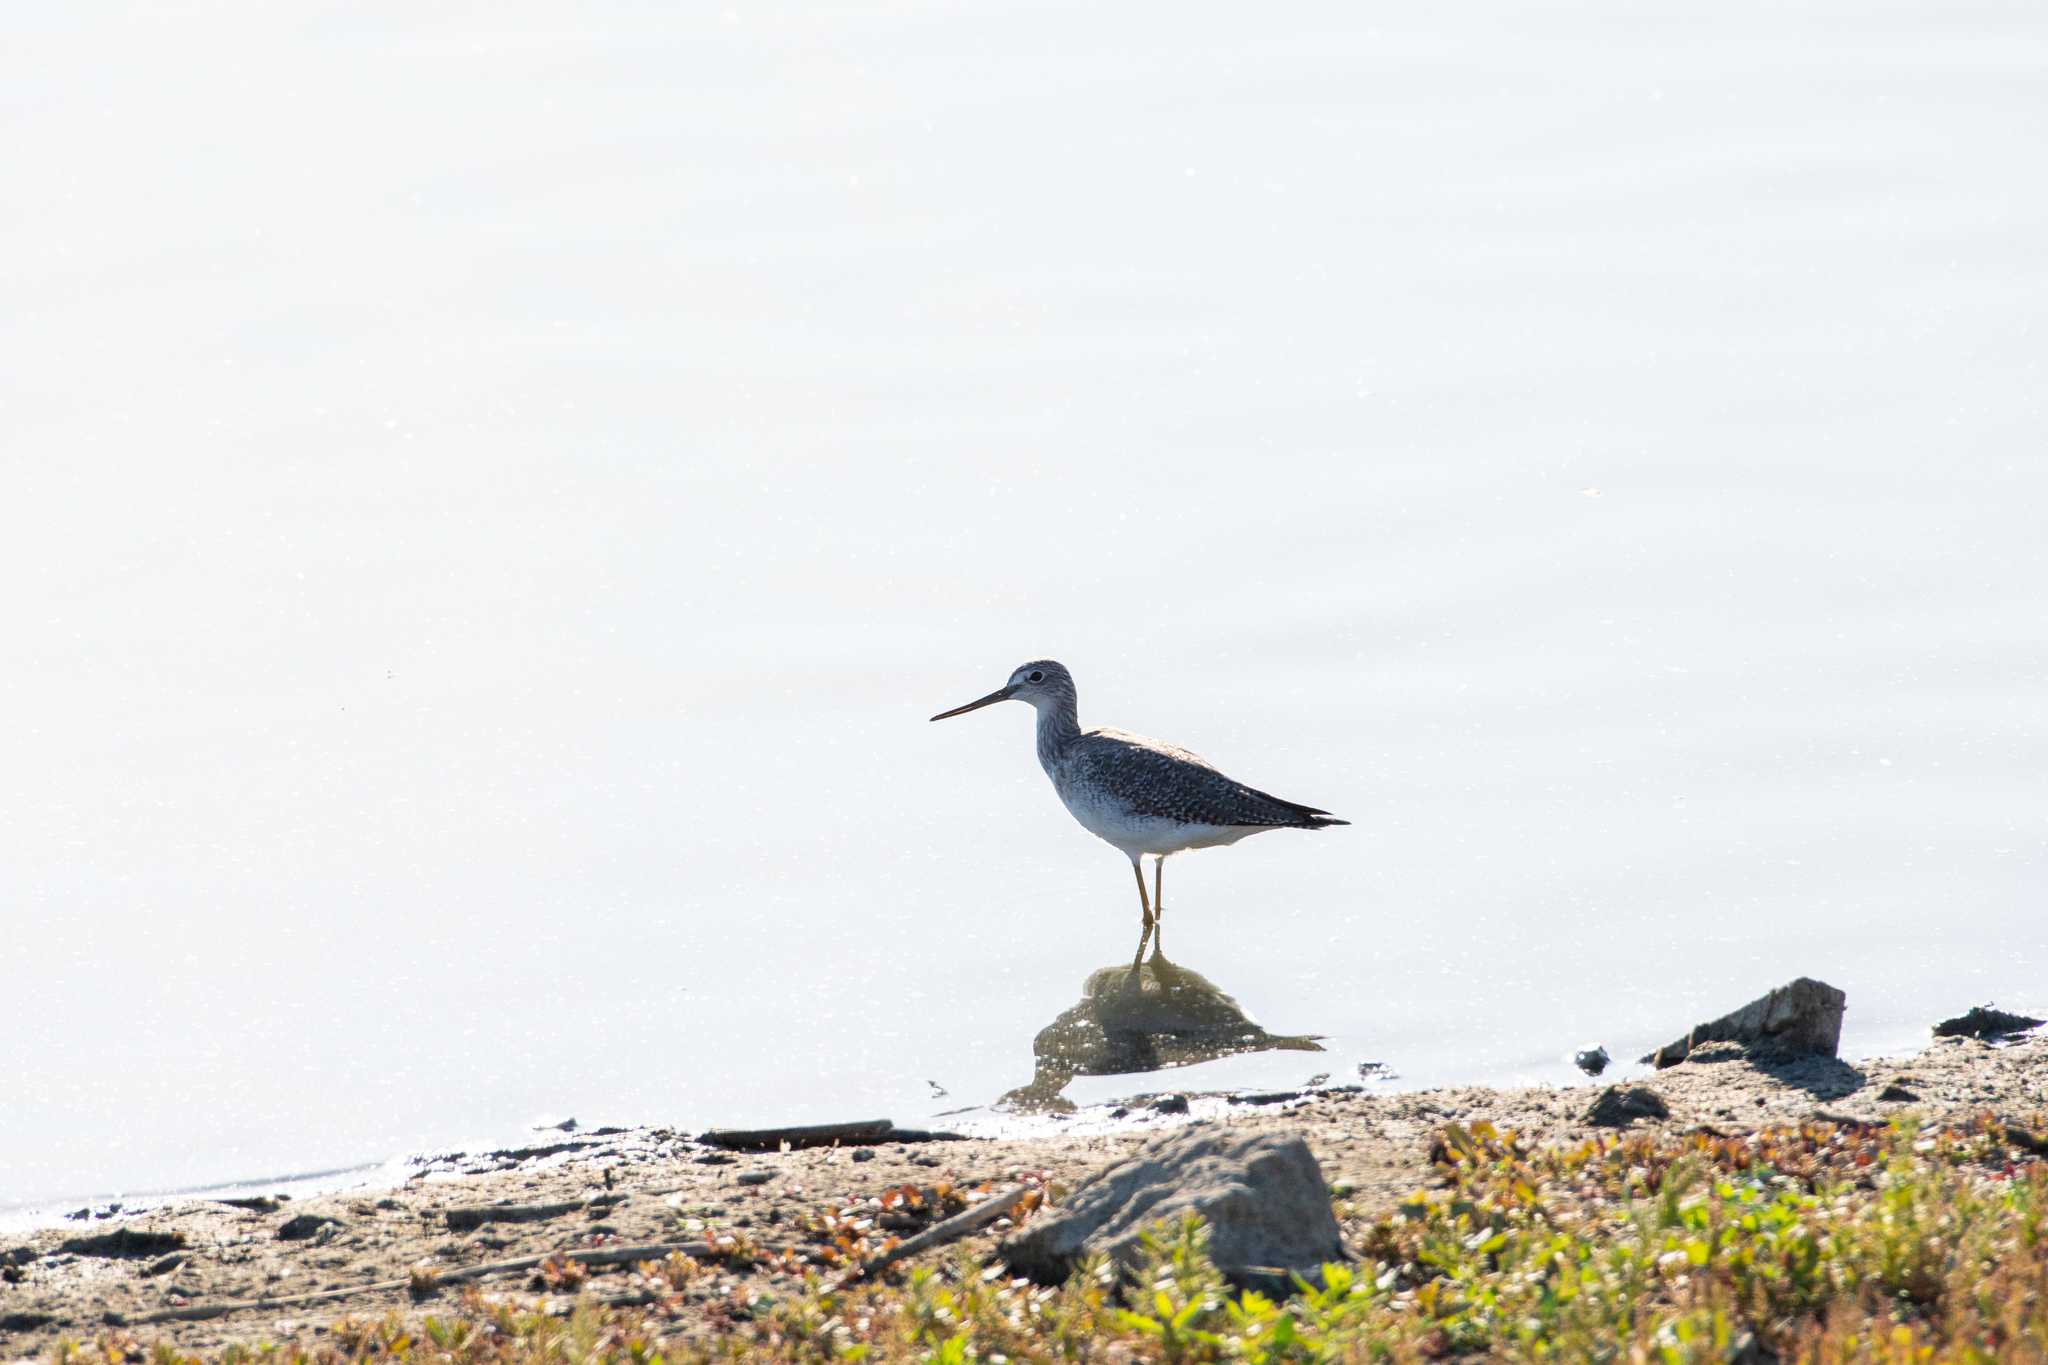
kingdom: Animalia
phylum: Chordata
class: Aves
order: Charadriiformes
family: Scolopacidae
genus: Tringa
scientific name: Tringa melanoleuca
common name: Greater yellowlegs
